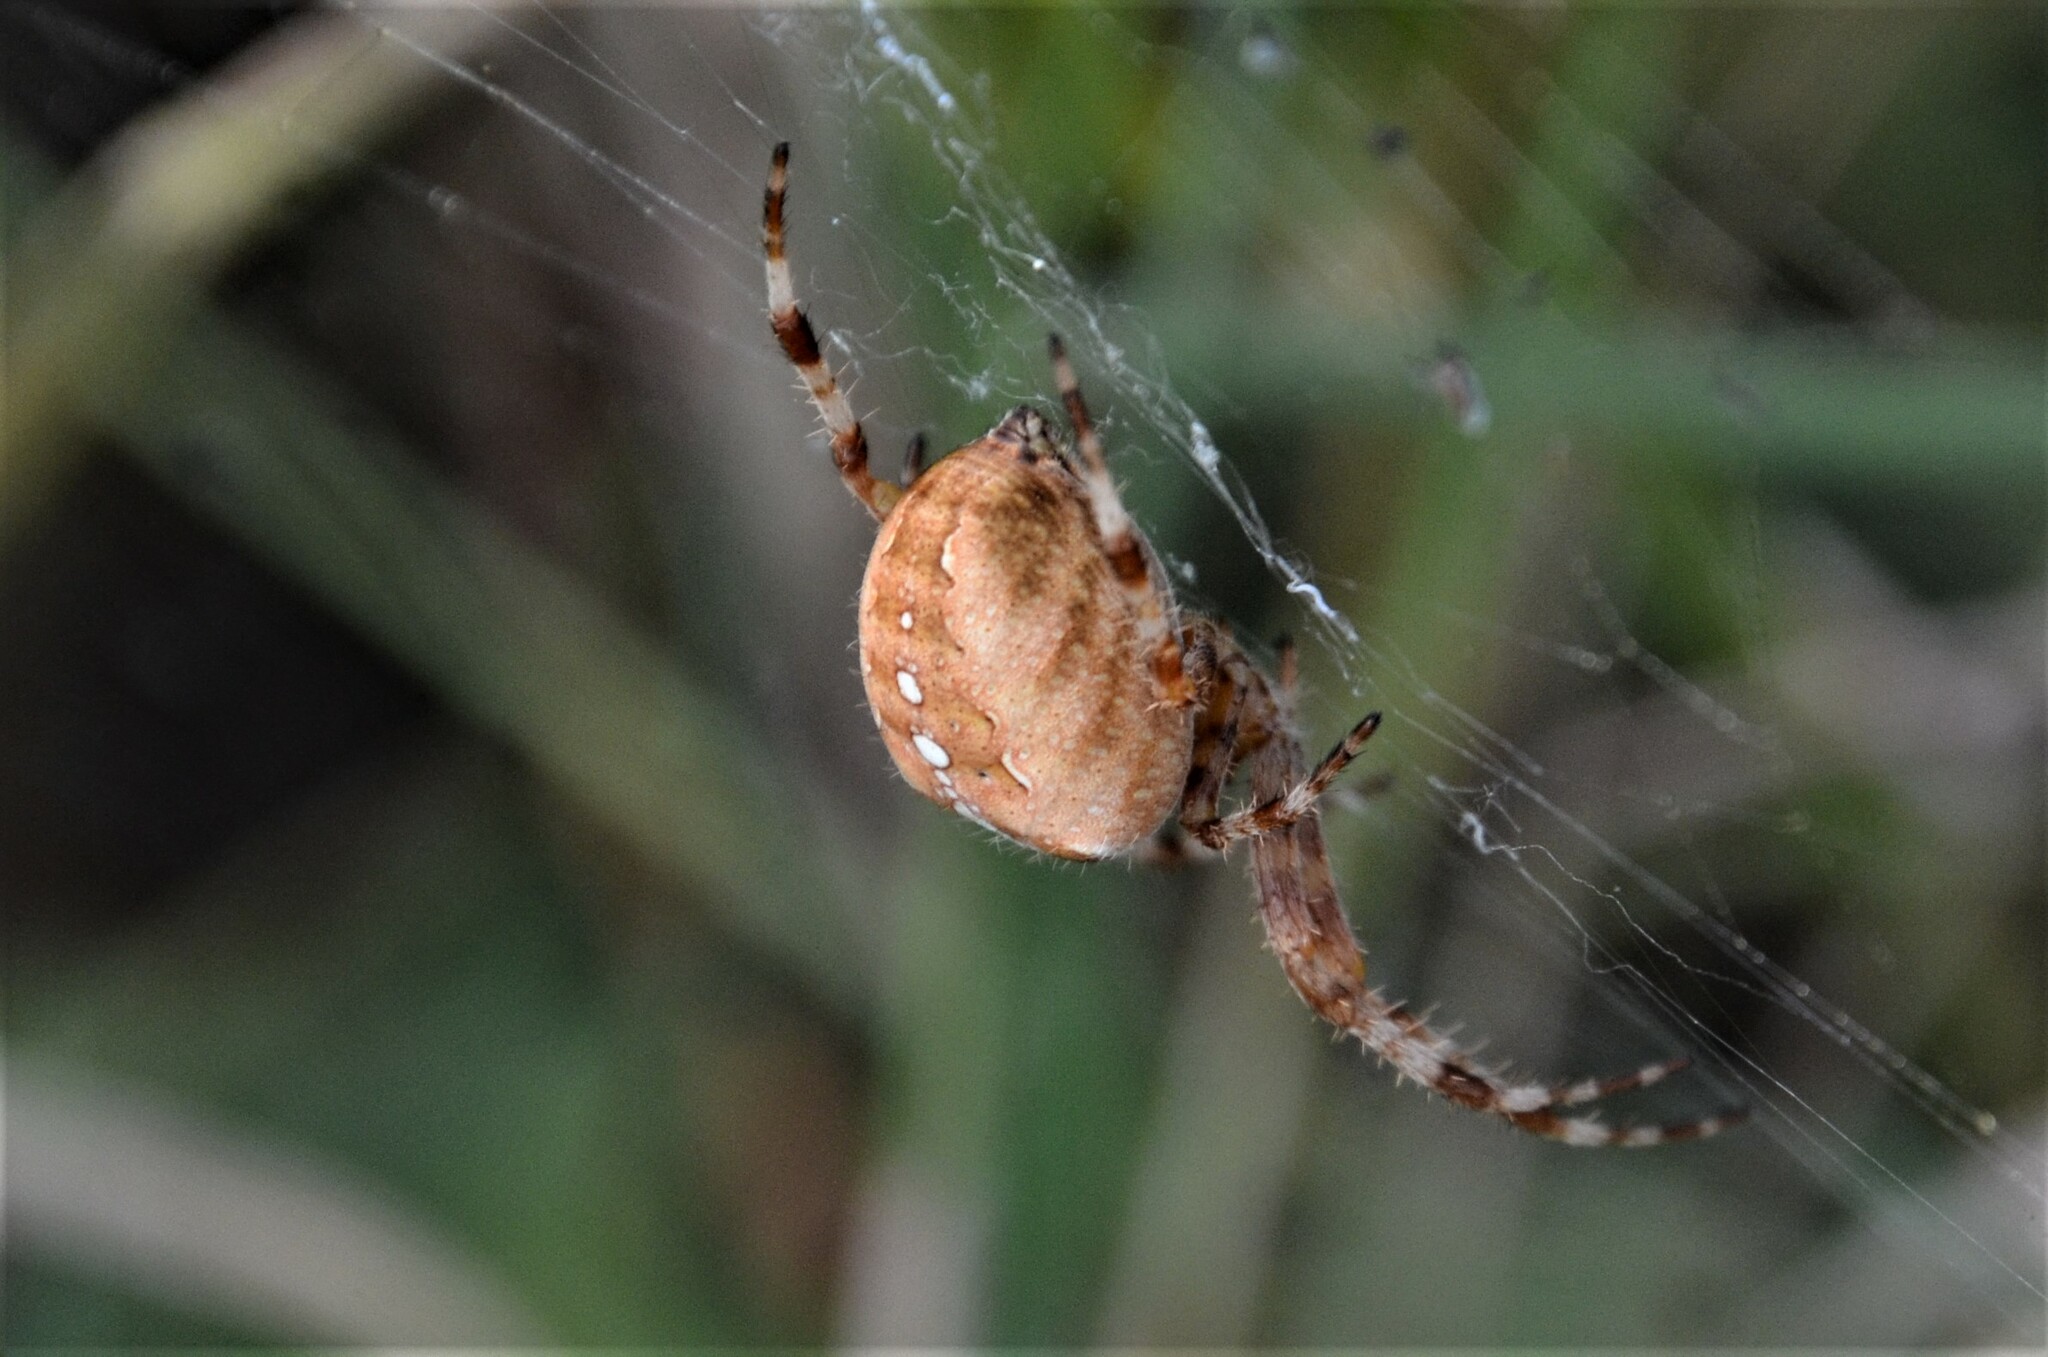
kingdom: Animalia
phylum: Arthropoda
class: Arachnida
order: Araneae
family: Araneidae
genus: Araneus
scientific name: Araneus diadematus
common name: Cross orbweaver
